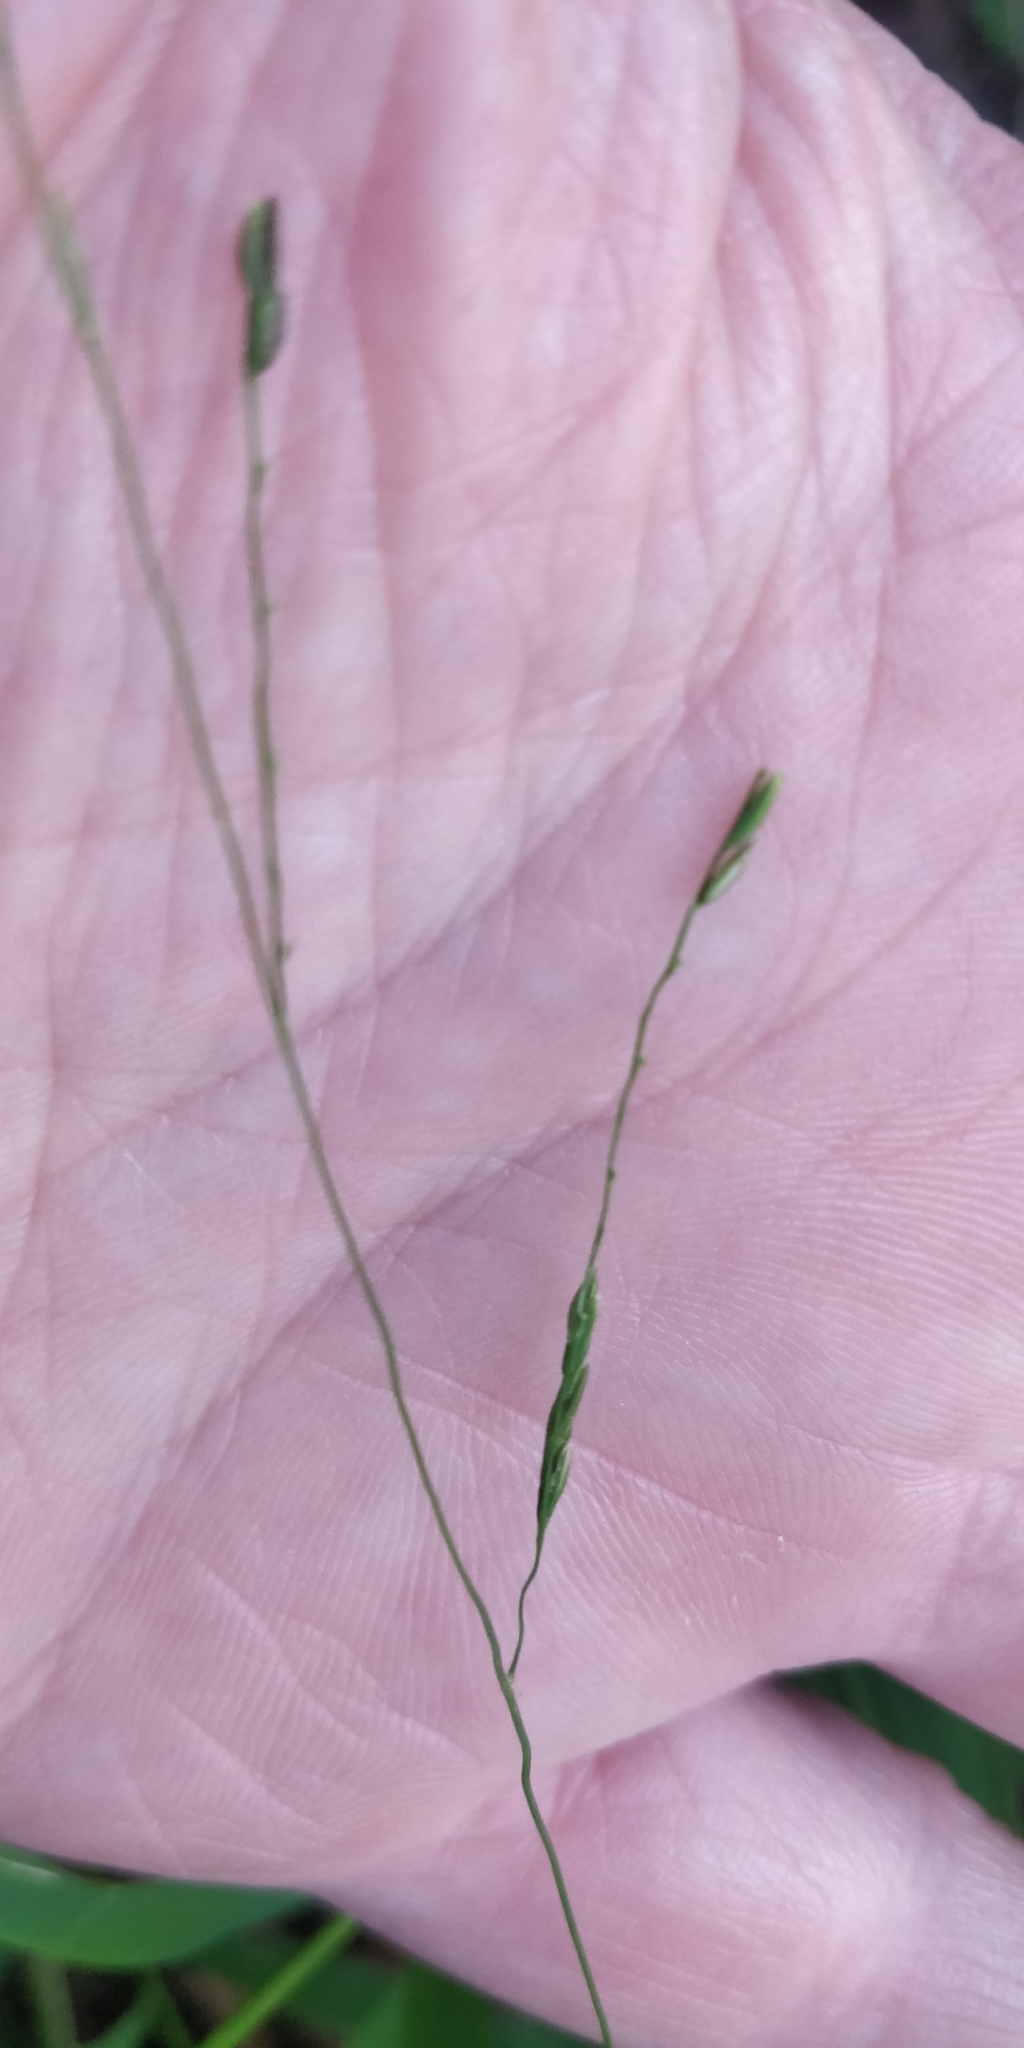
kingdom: Plantae
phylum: Tracheophyta
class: Liliopsida
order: Poales
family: Poaceae
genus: Leersia
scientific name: Leersia virginica
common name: White cutgrass
